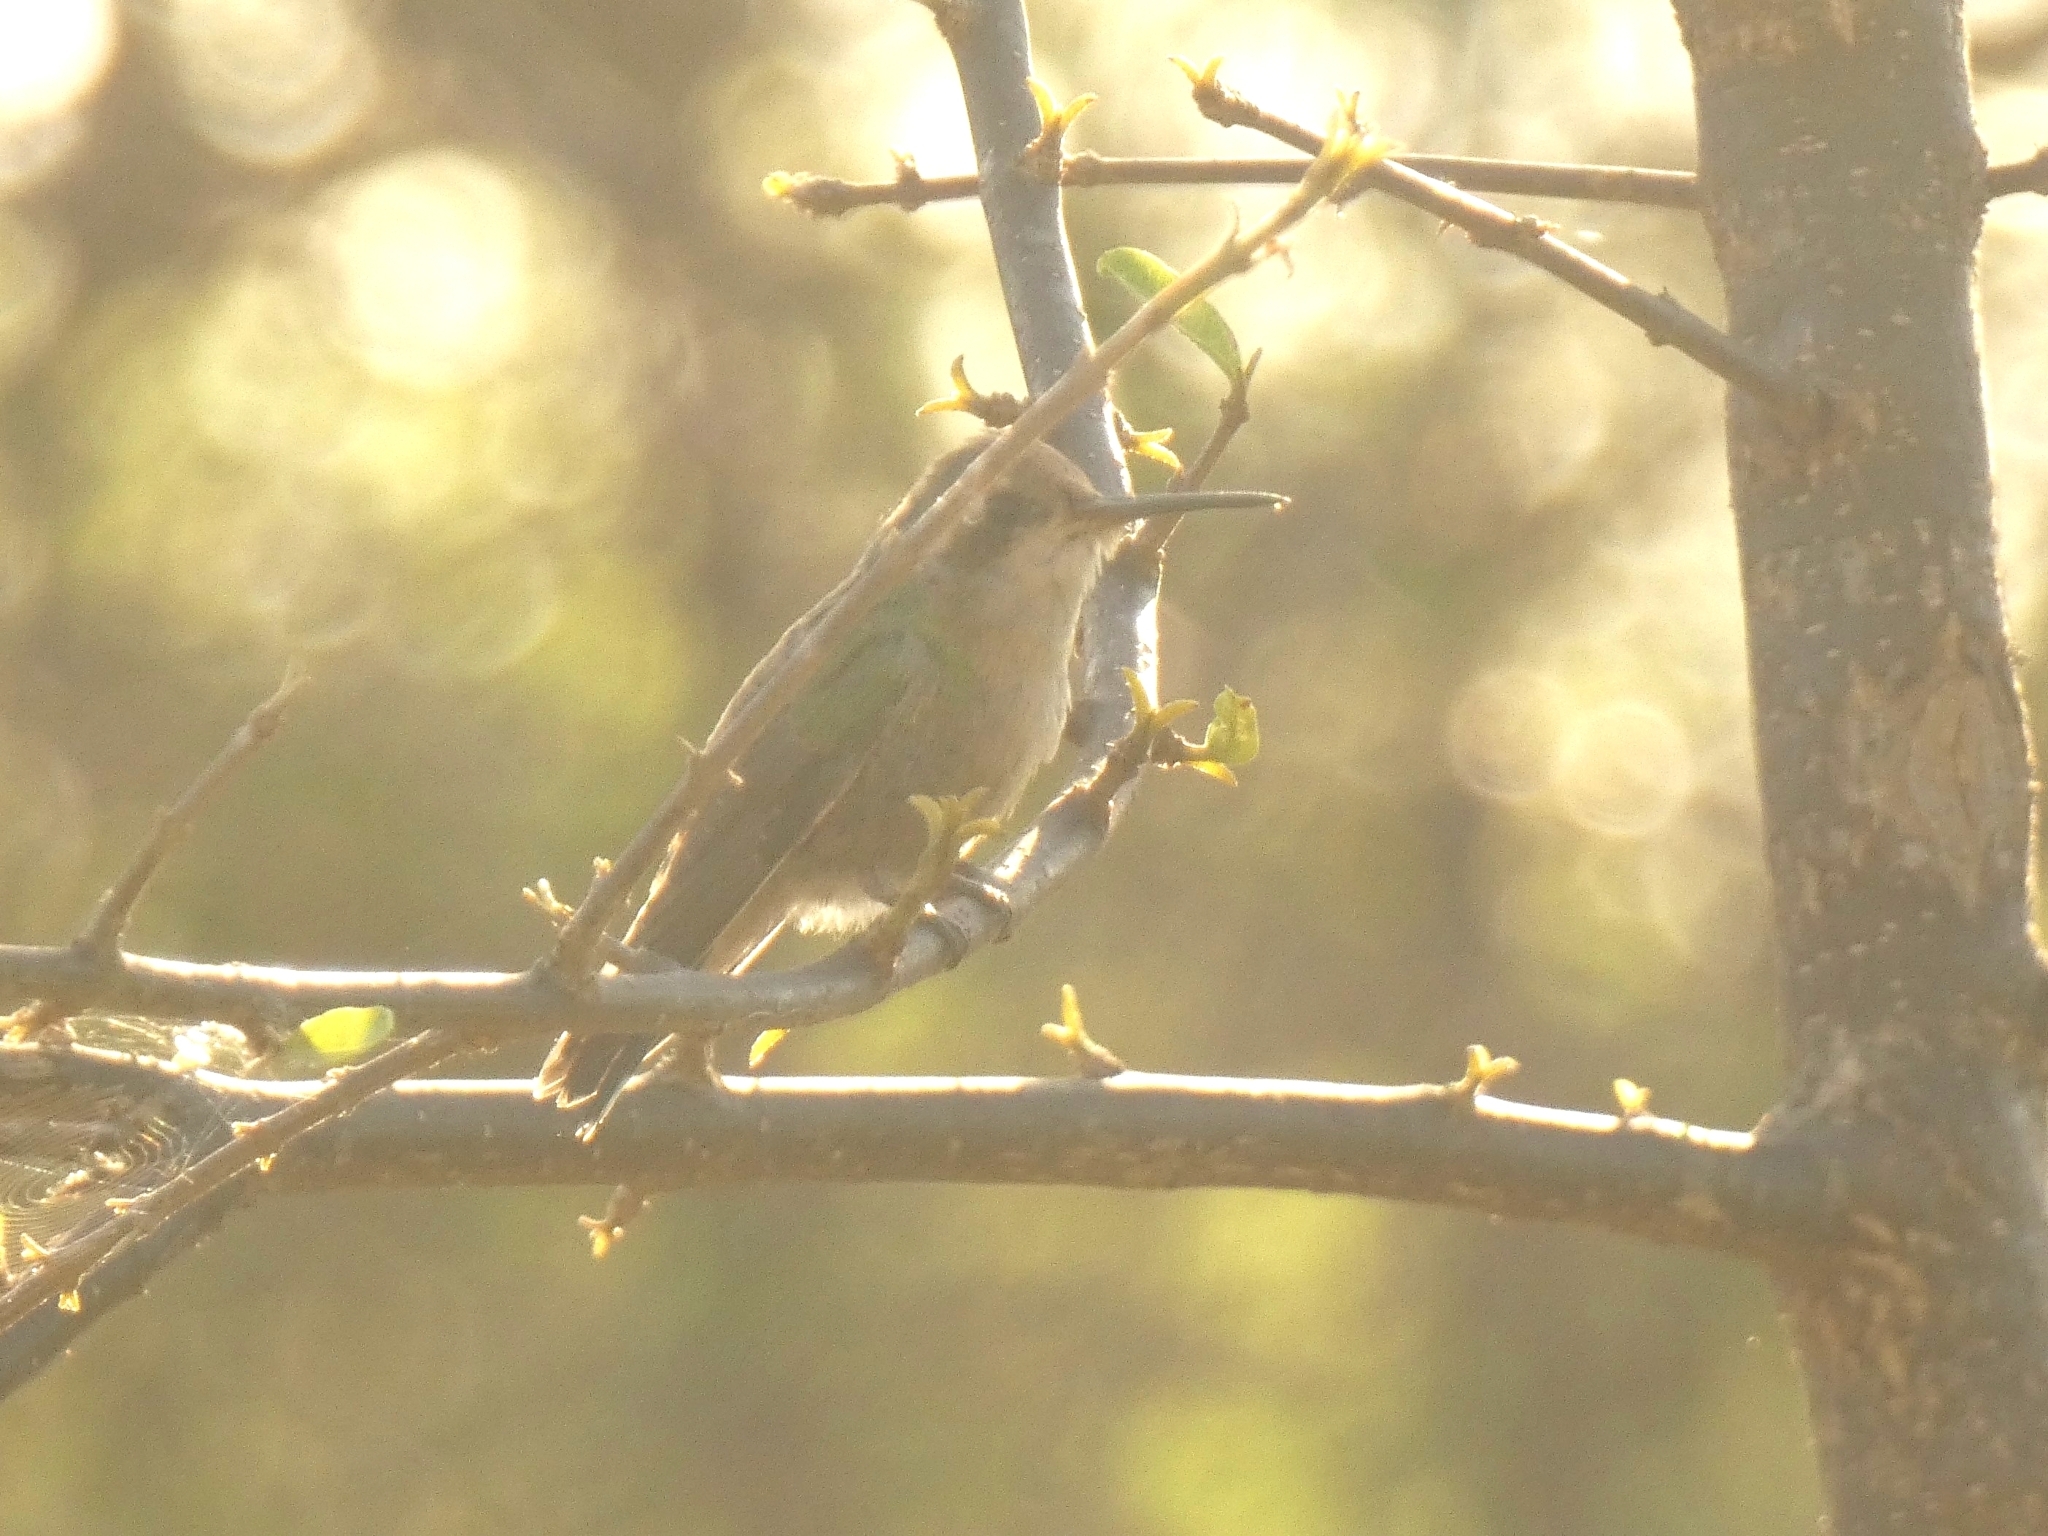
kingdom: Animalia
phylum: Chordata
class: Aves
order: Apodiformes
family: Trochilidae
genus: Chlorostilbon
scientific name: Chlorostilbon lucidus
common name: Glittering-bellied emerald
